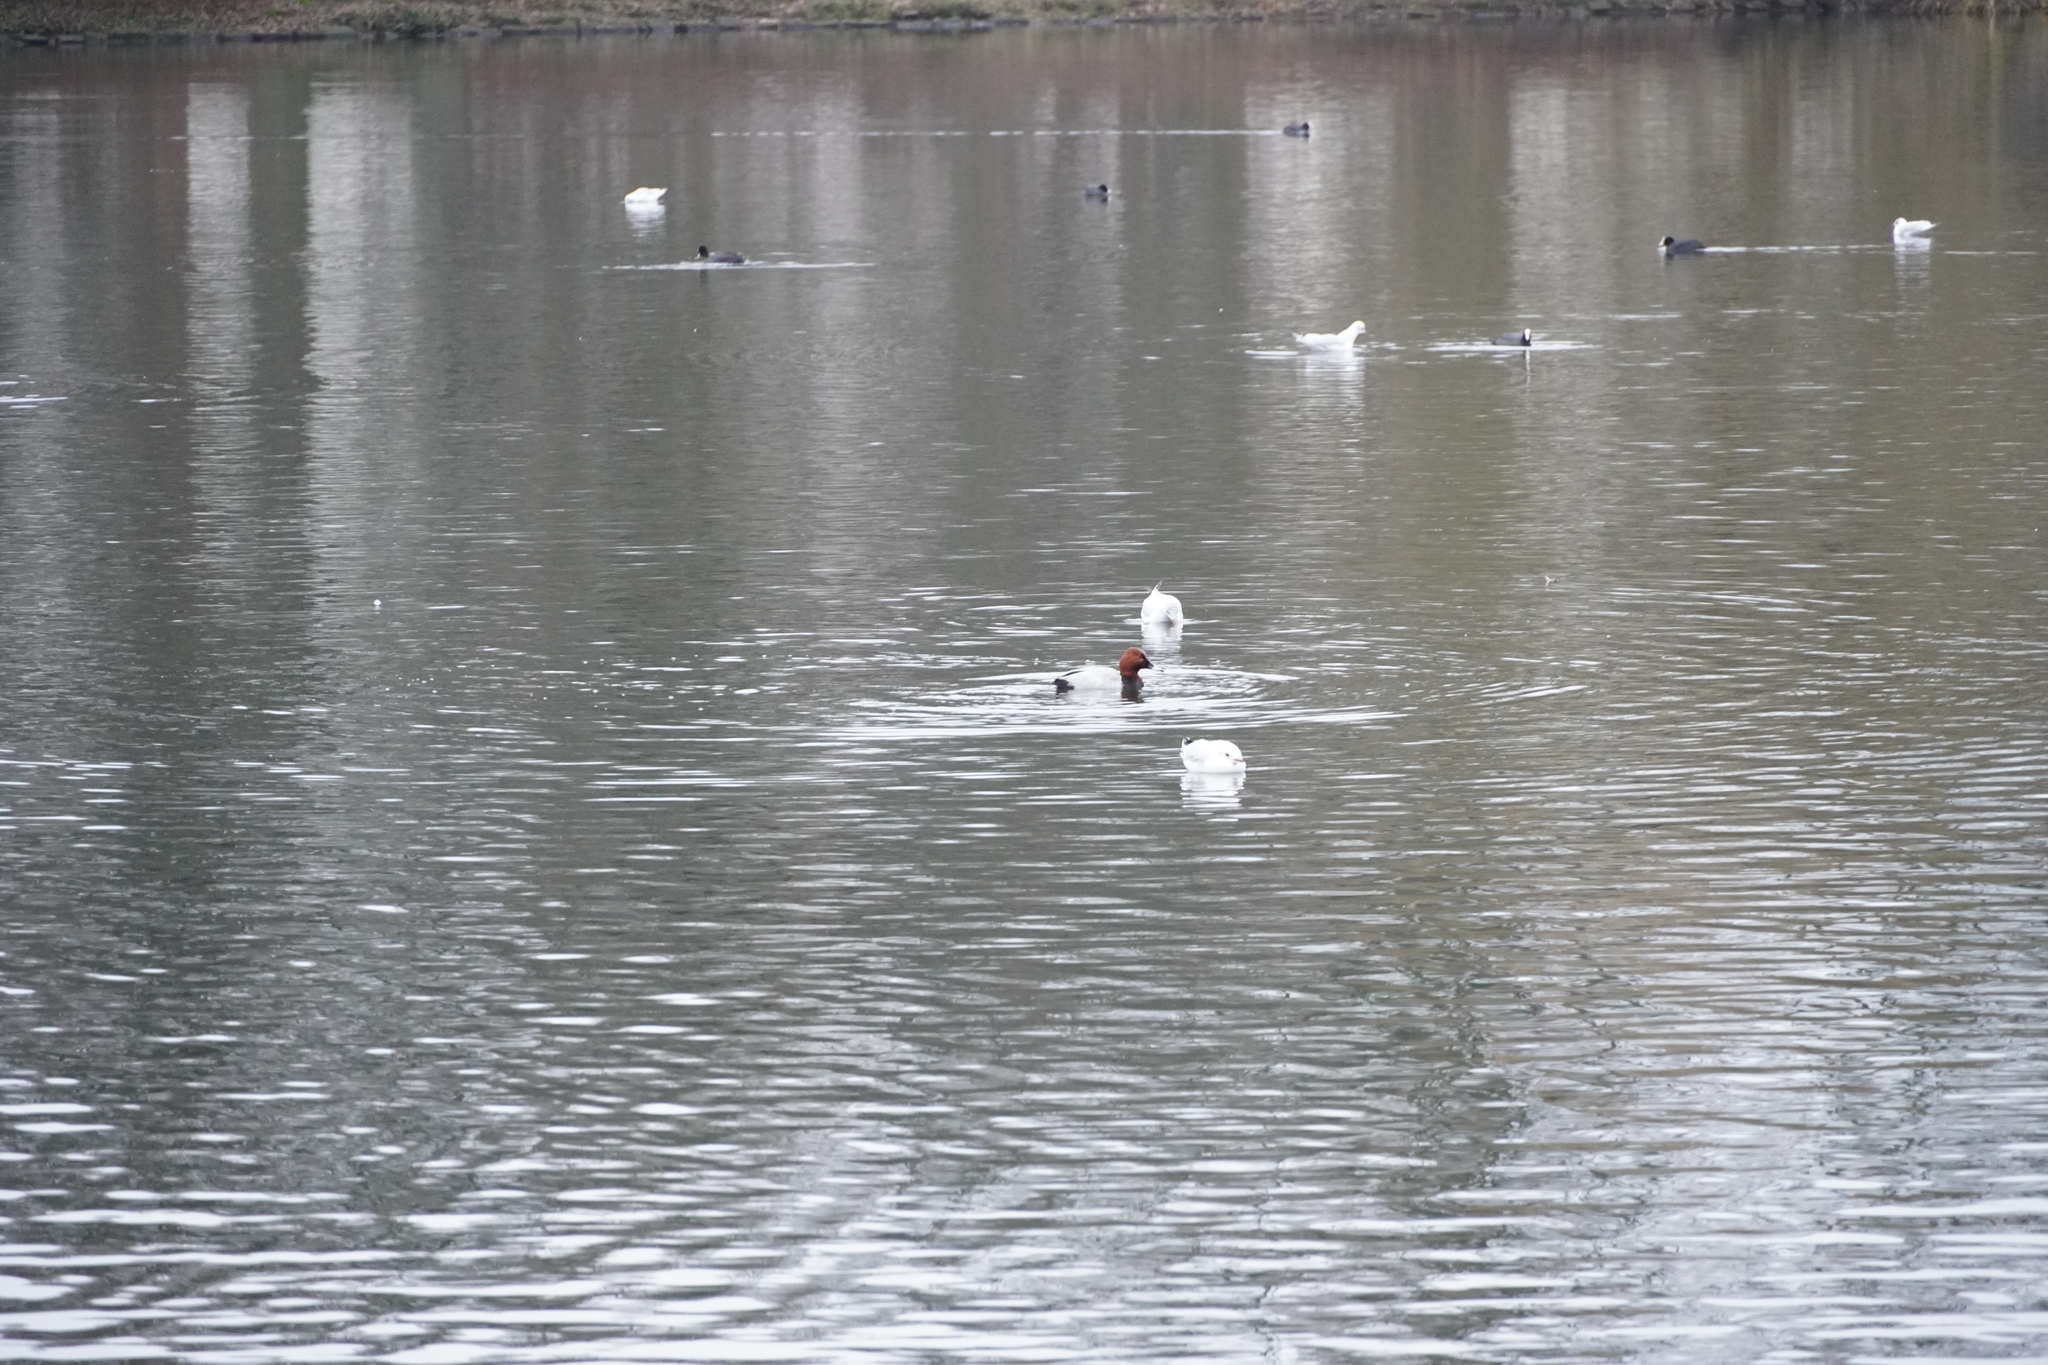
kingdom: Animalia
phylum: Chordata
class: Aves
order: Anseriformes
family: Anatidae
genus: Aythya
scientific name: Aythya ferina
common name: Common pochard
